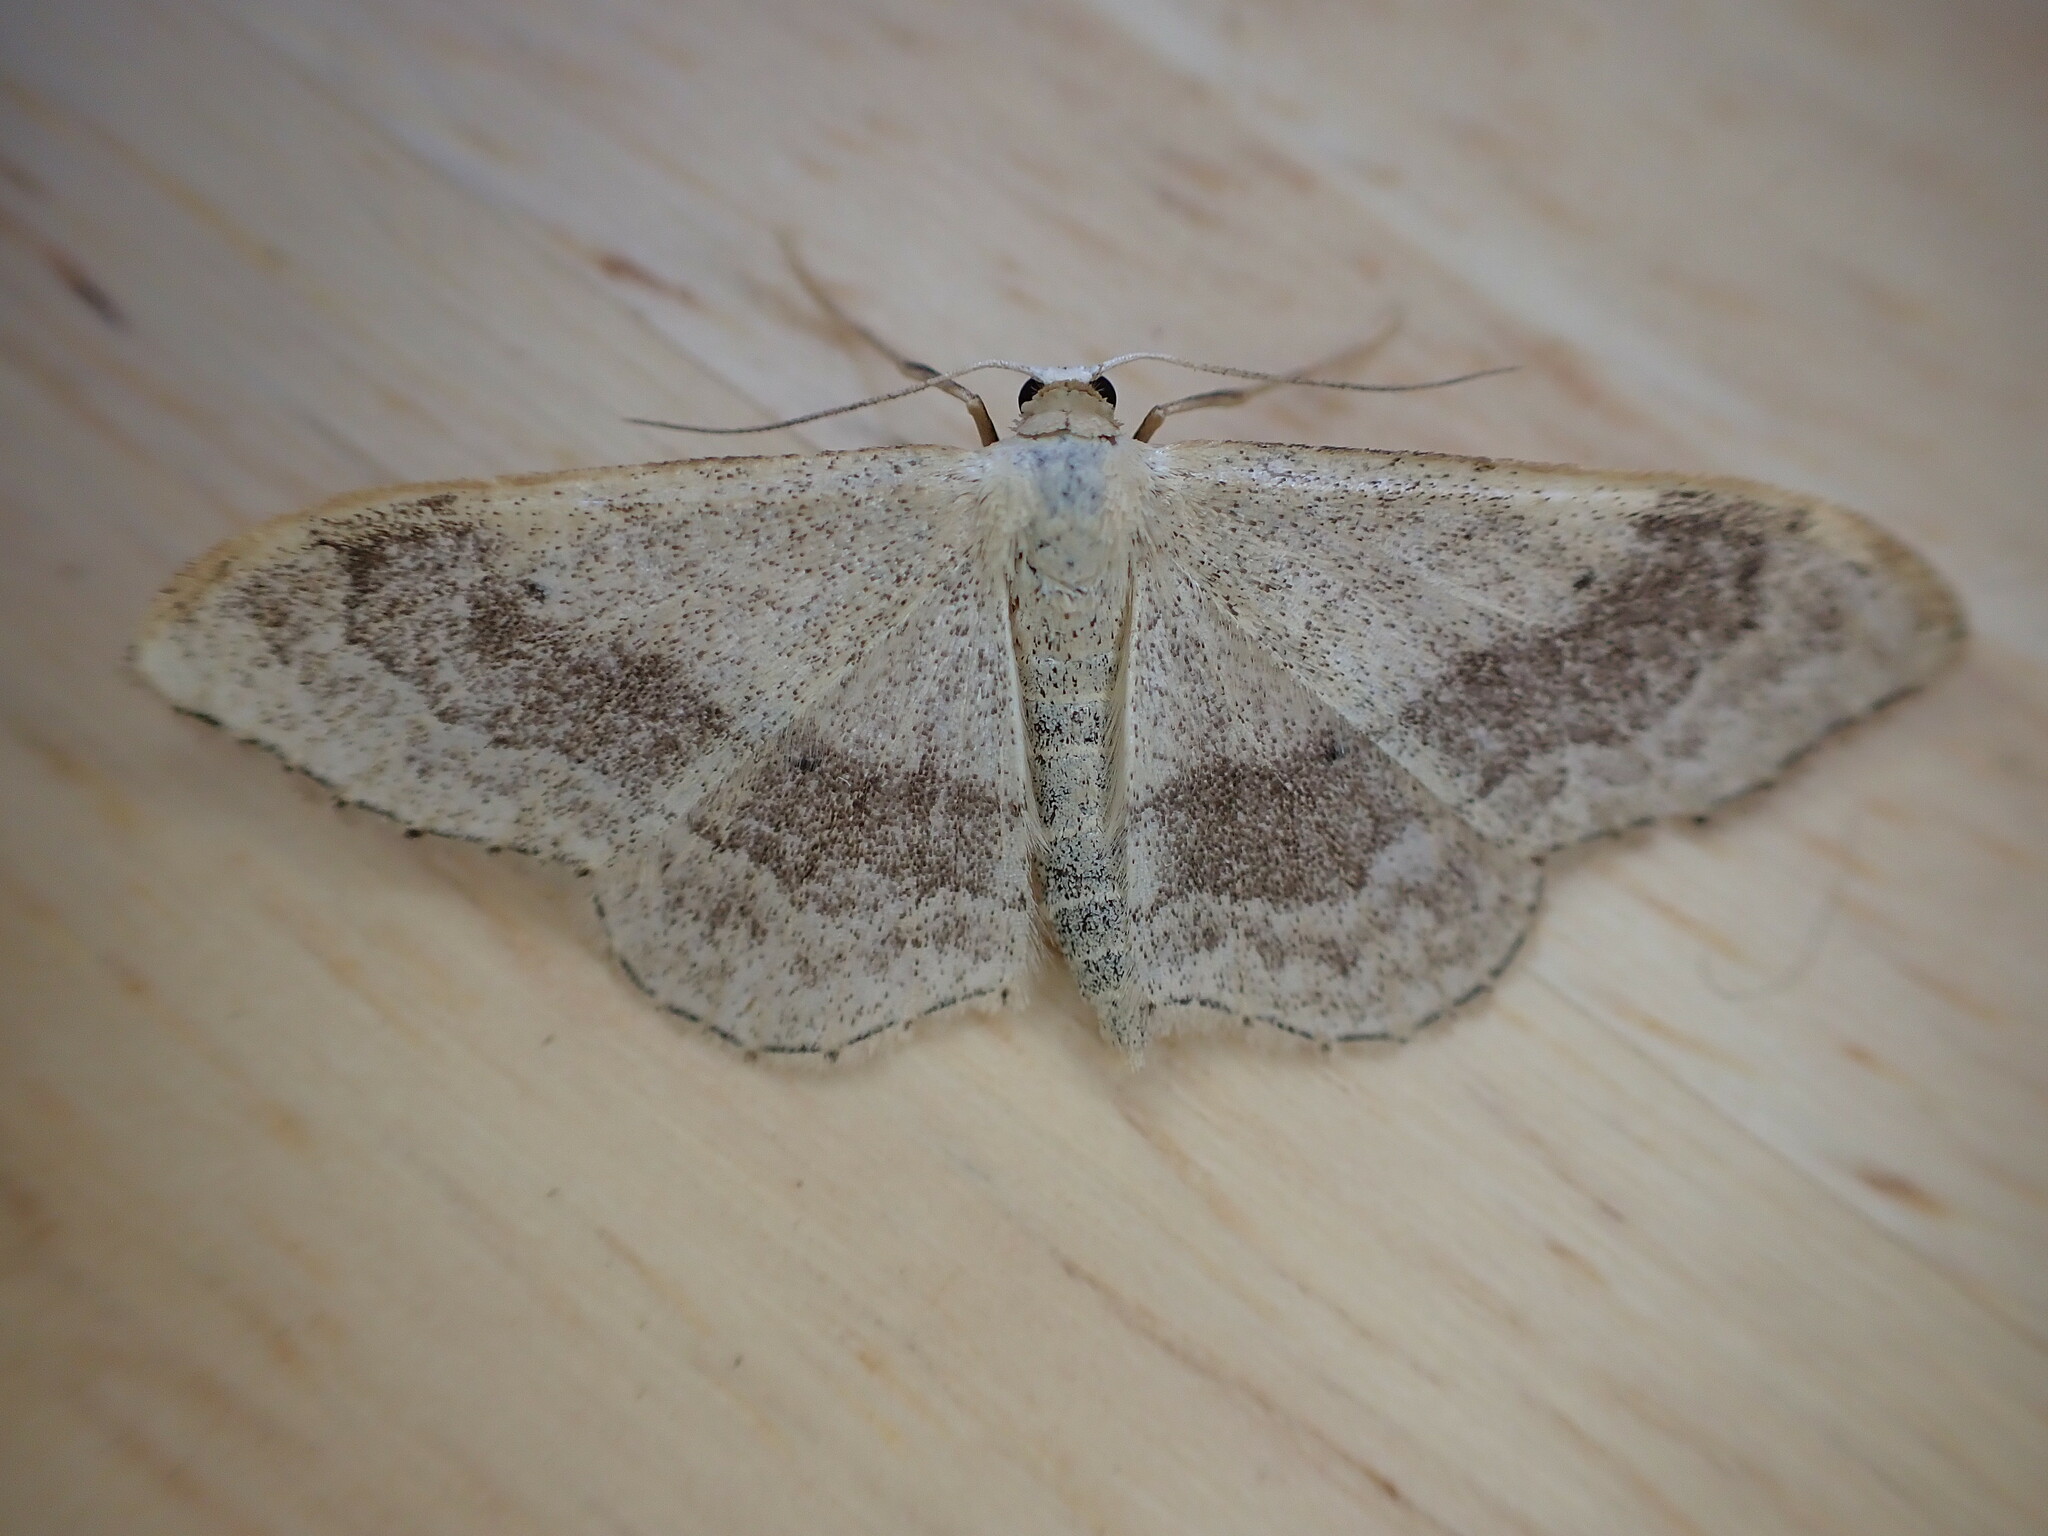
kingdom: Animalia
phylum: Arthropoda
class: Insecta
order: Lepidoptera
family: Geometridae
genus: Idaea
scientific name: Idaea aversata
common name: Riband wave
